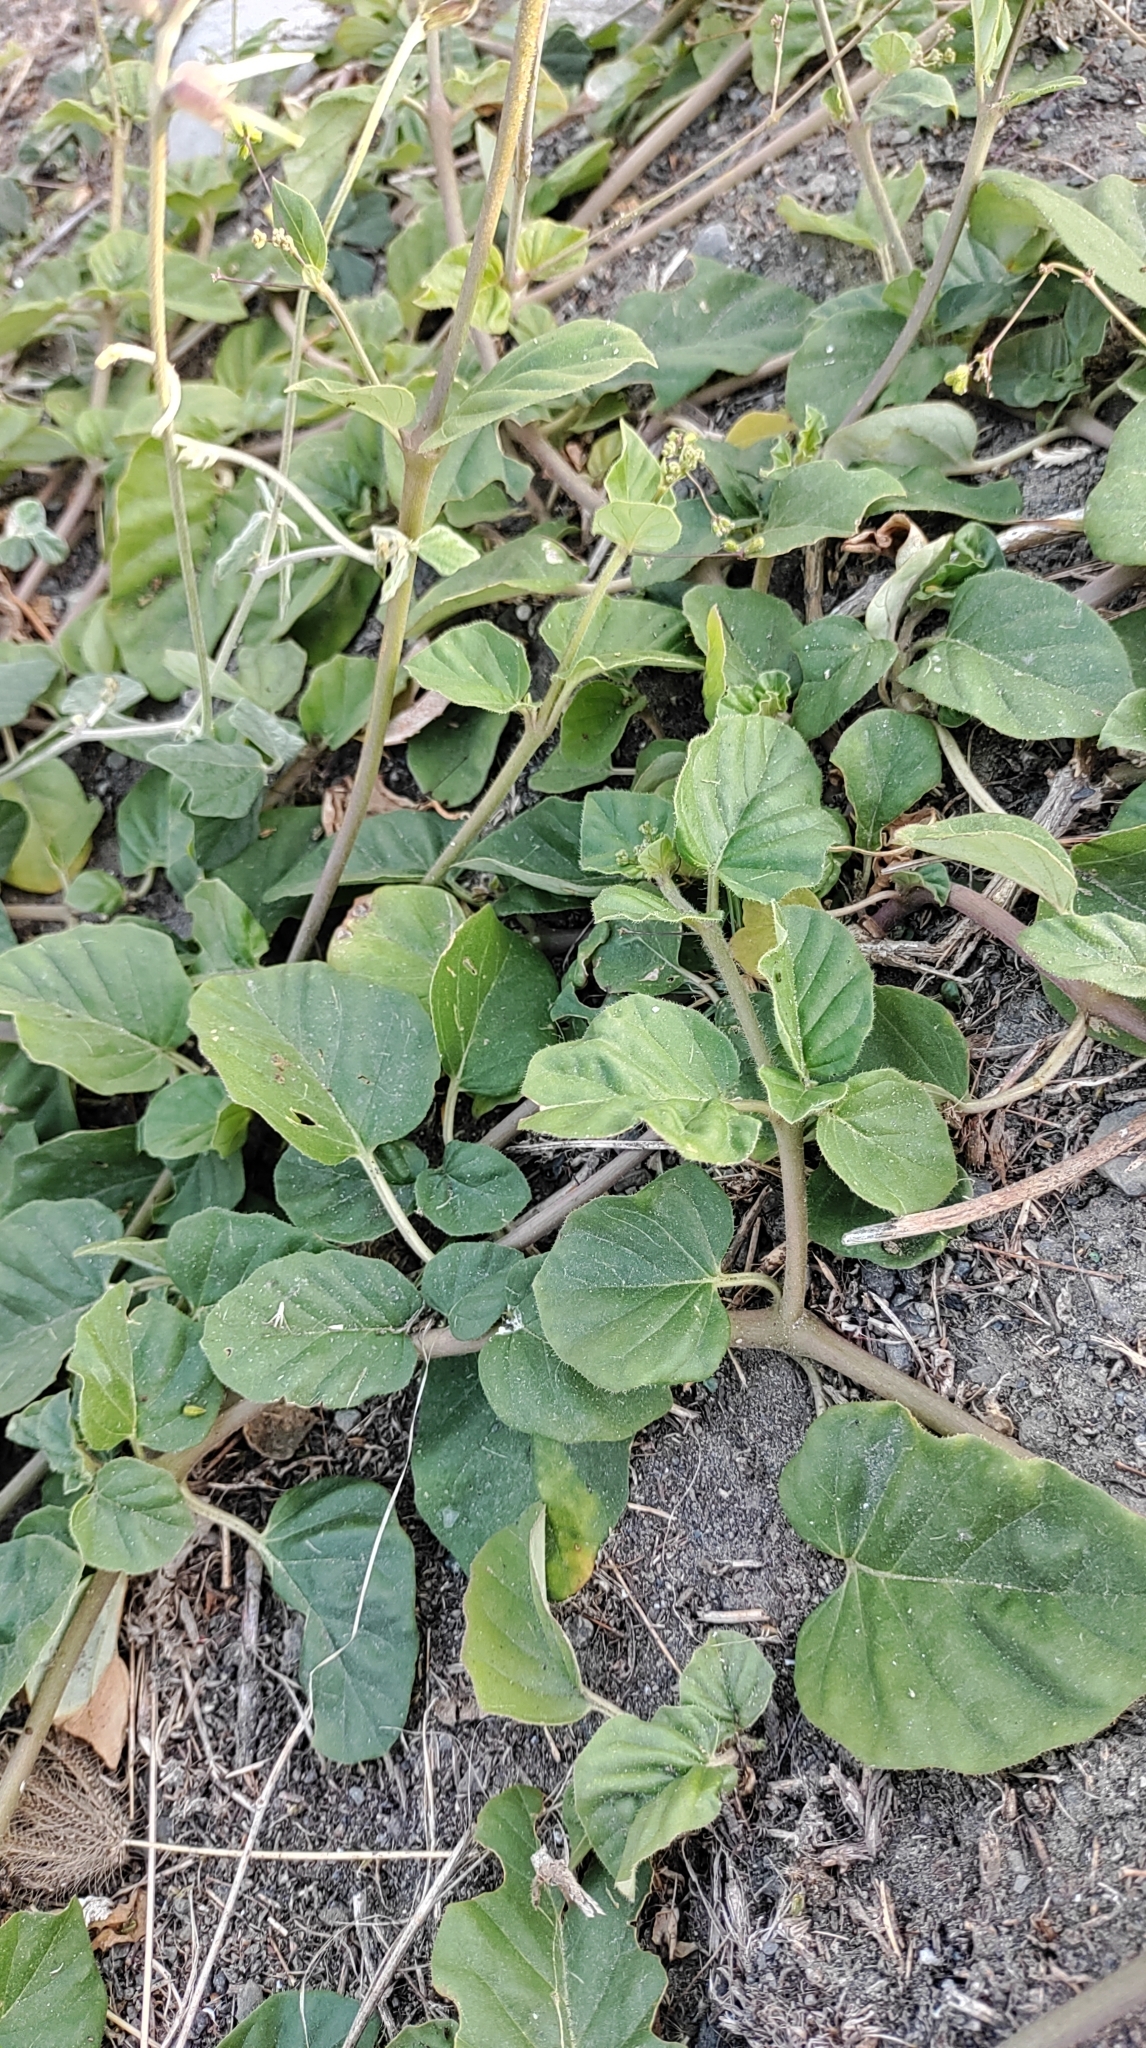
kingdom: Plantae
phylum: Tracheophyta
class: Magnoliopsida
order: Caryophyllales
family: Nyctaginaceae
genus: Boerhavia
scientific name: Boerhavia coccinea
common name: Scarlet spiderling
